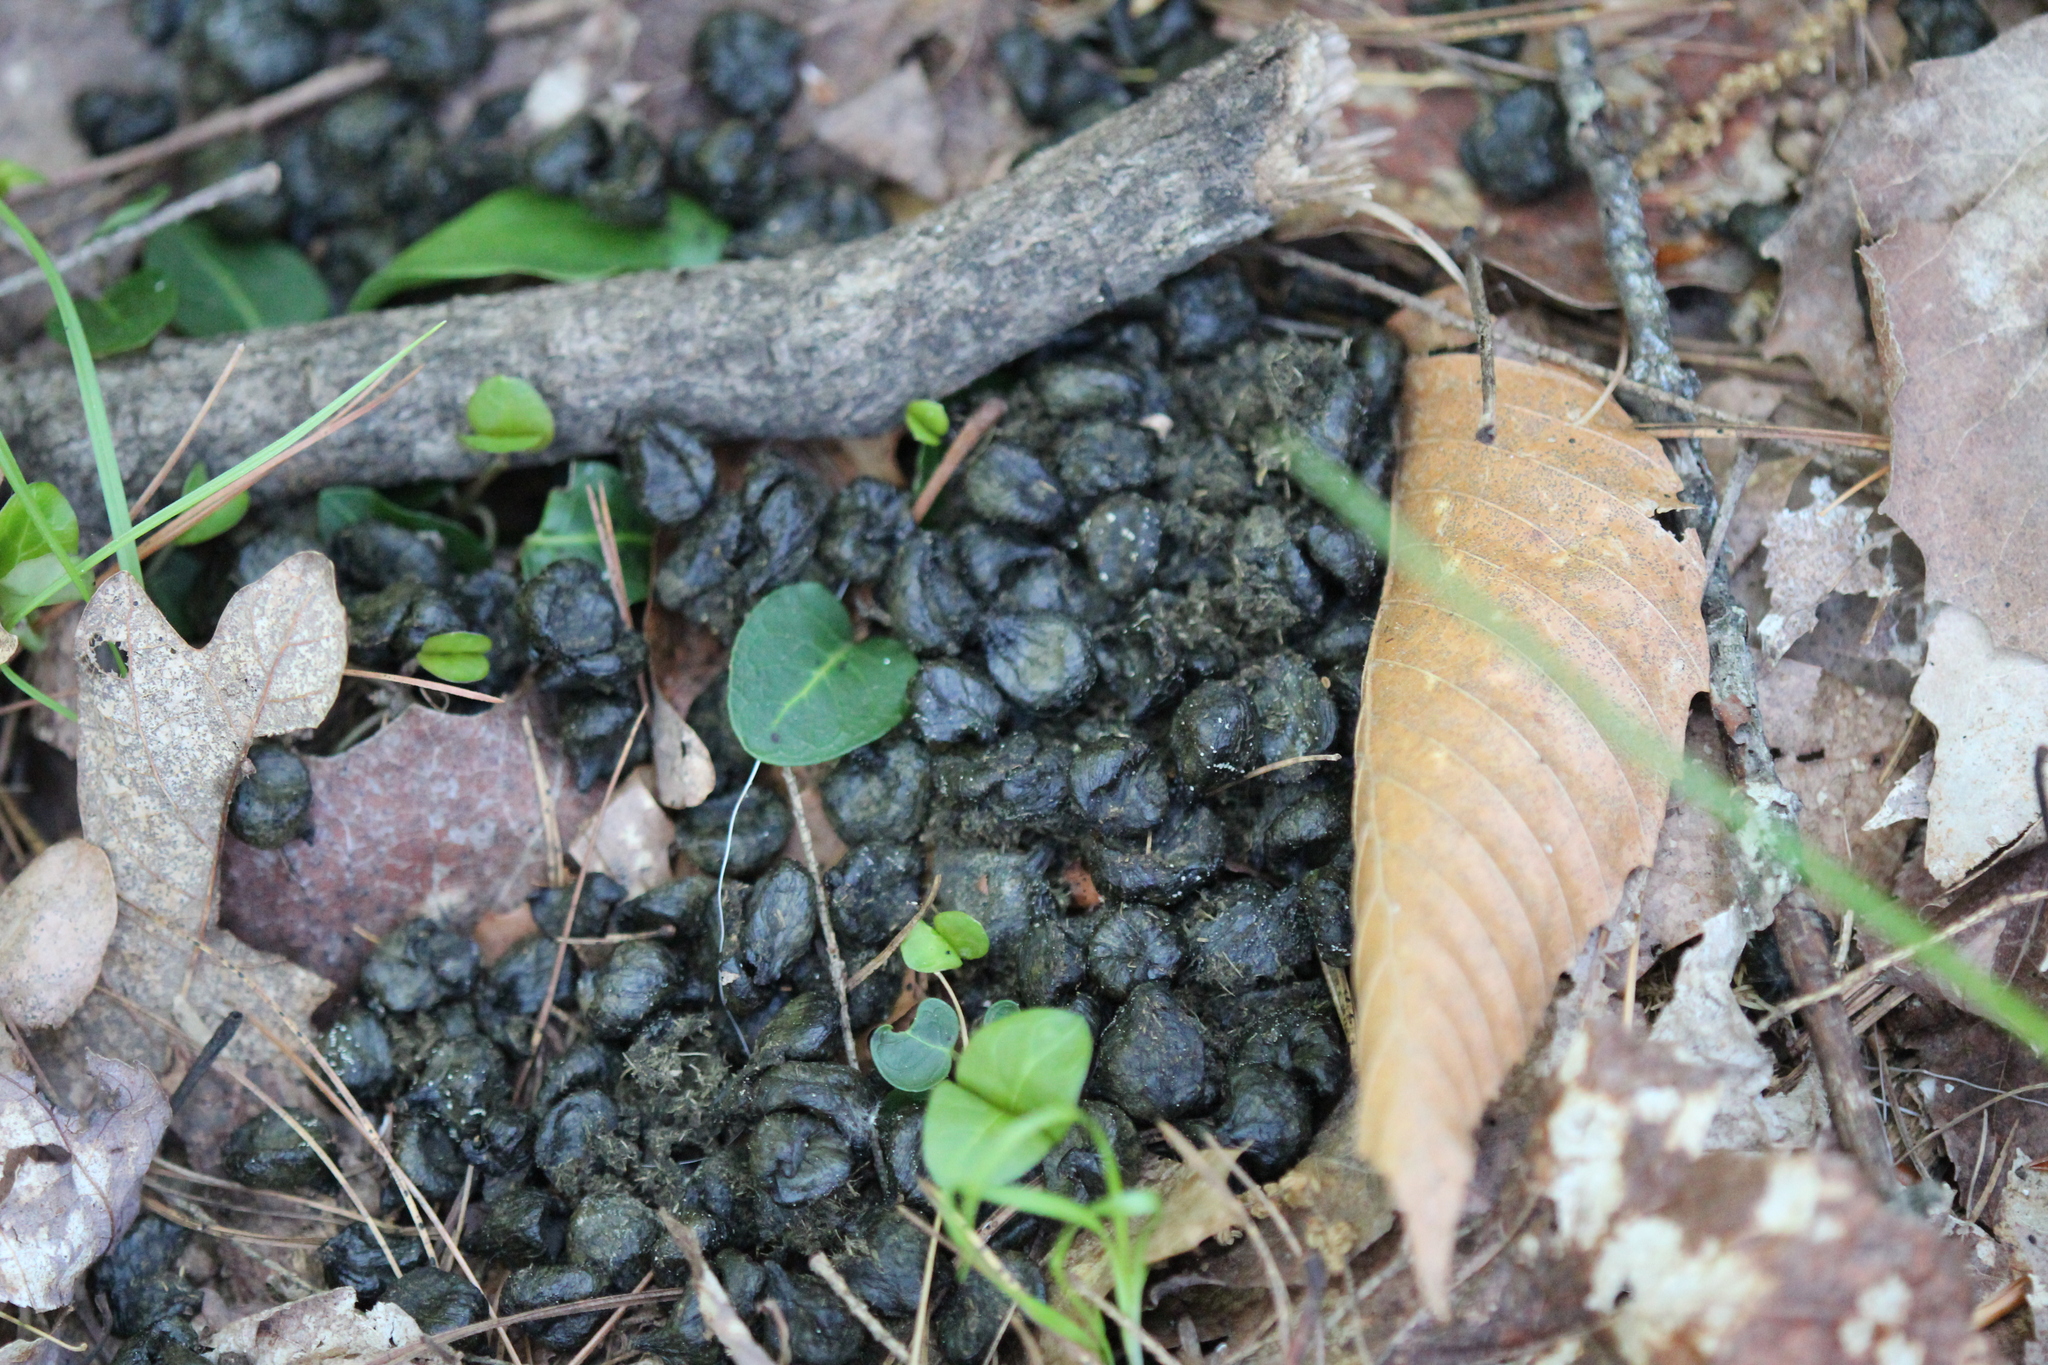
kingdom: Animalia
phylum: Chordata
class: Mammalia
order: Artiodactyla
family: Cervidae
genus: Odocoileus
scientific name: Odocoileus virginianus
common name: White-tailed deer
